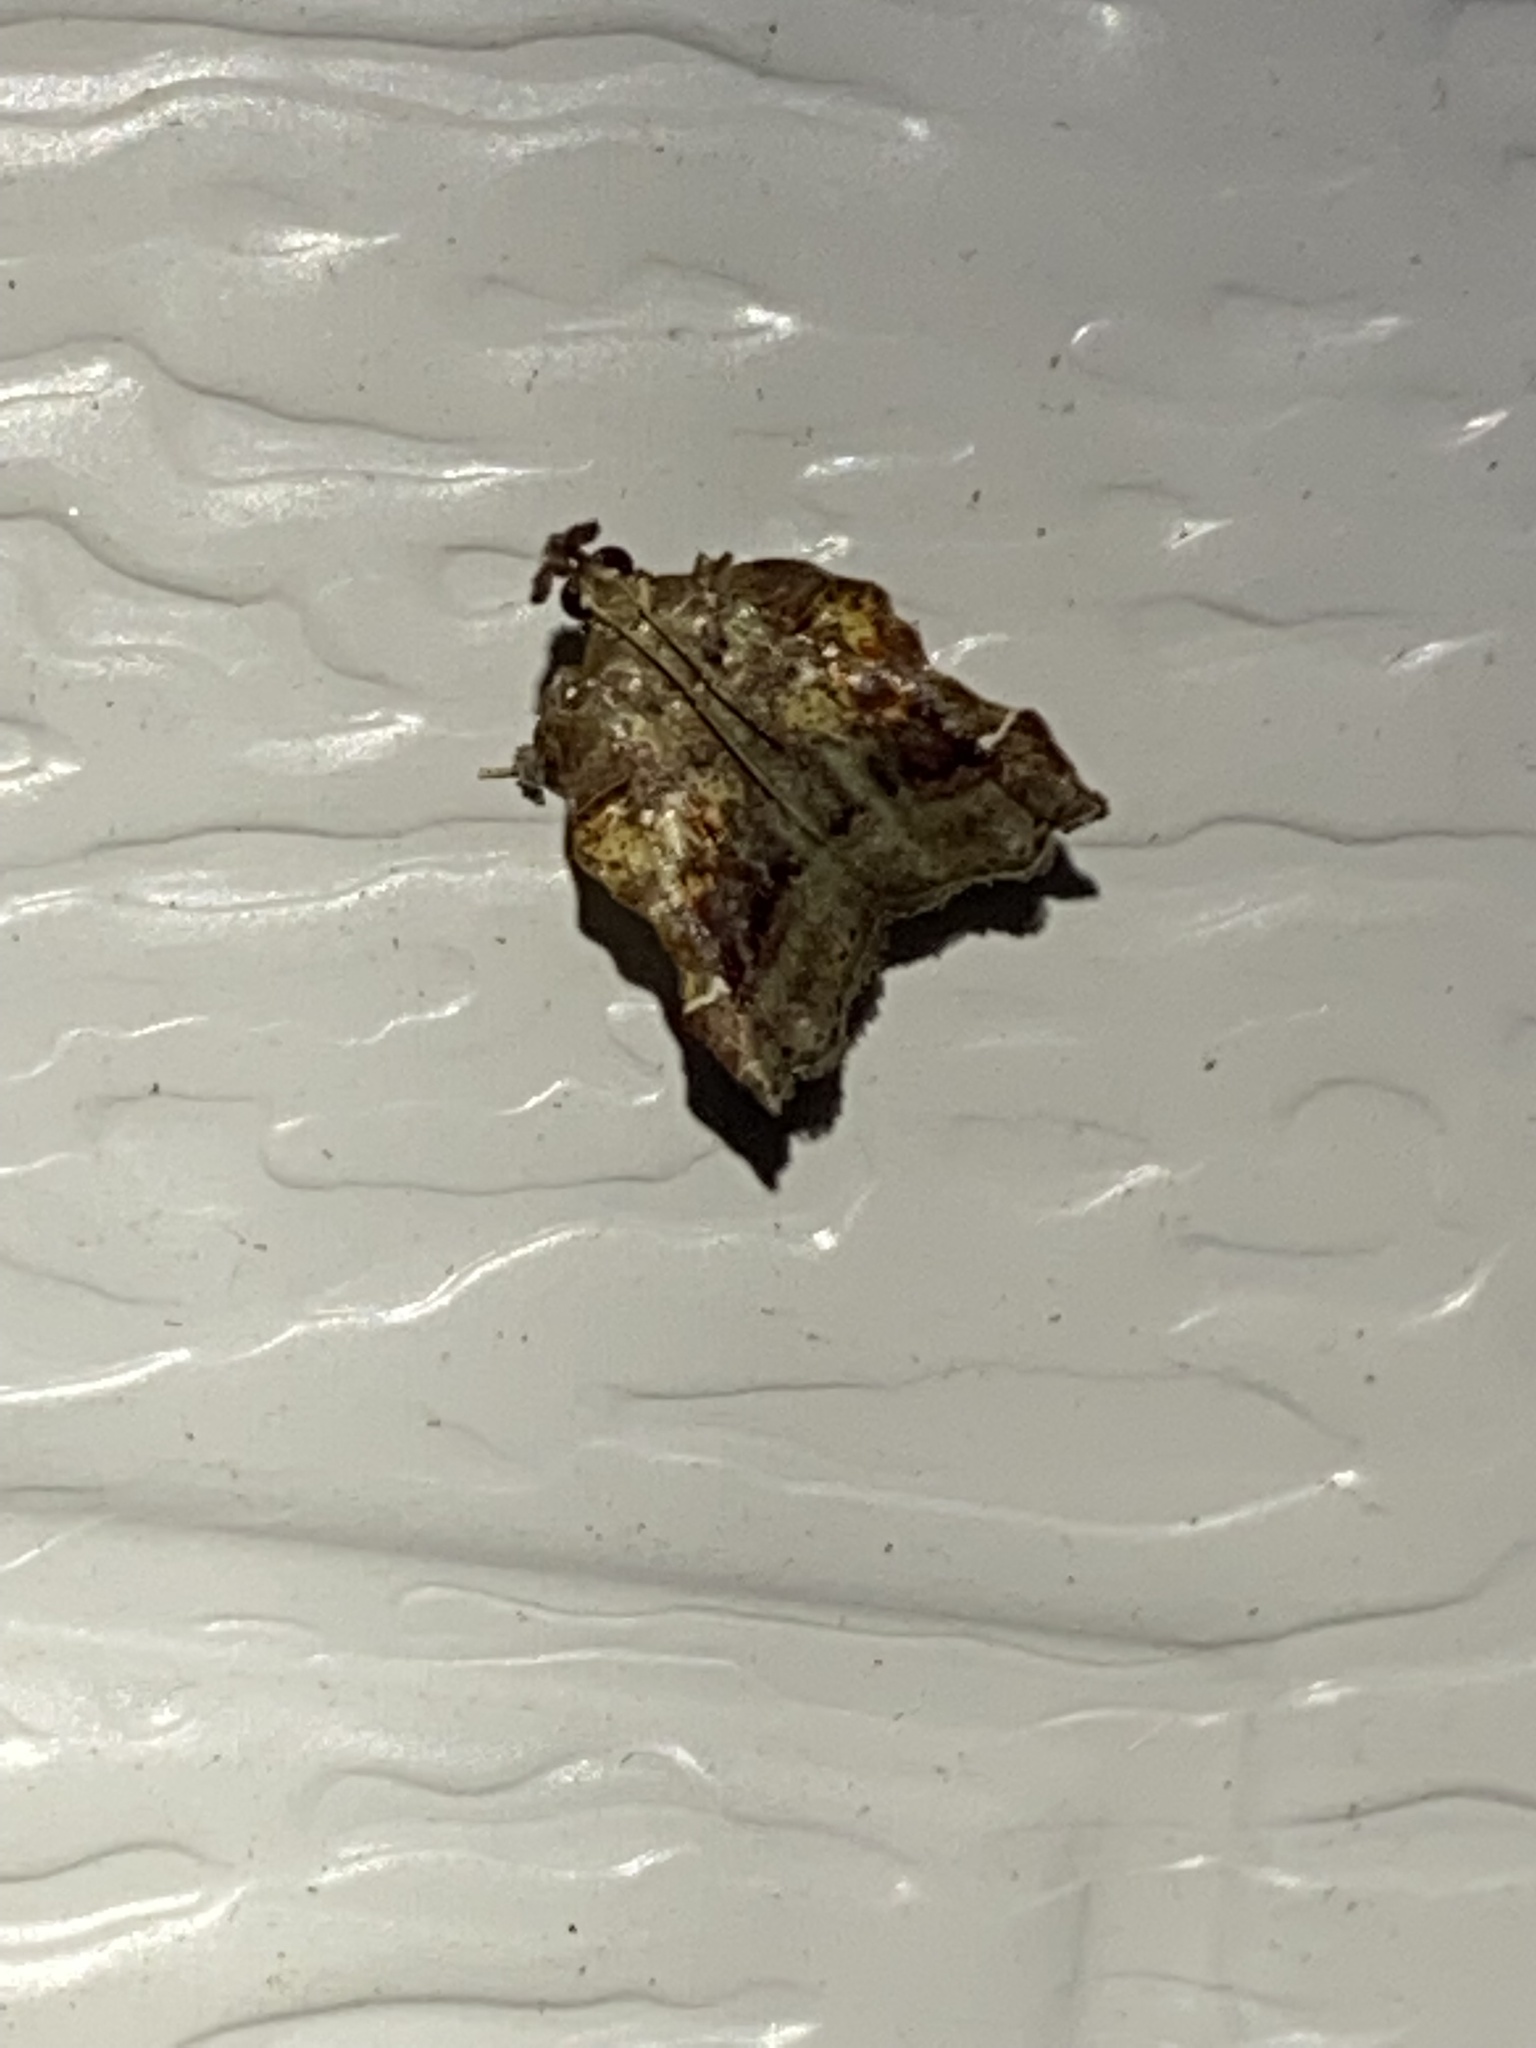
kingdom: Animalia
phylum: Arthropoda
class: Insecta
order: Lepidoptera
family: Pyralidae
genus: Clydonopteron
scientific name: Clydonopteron sacculana
